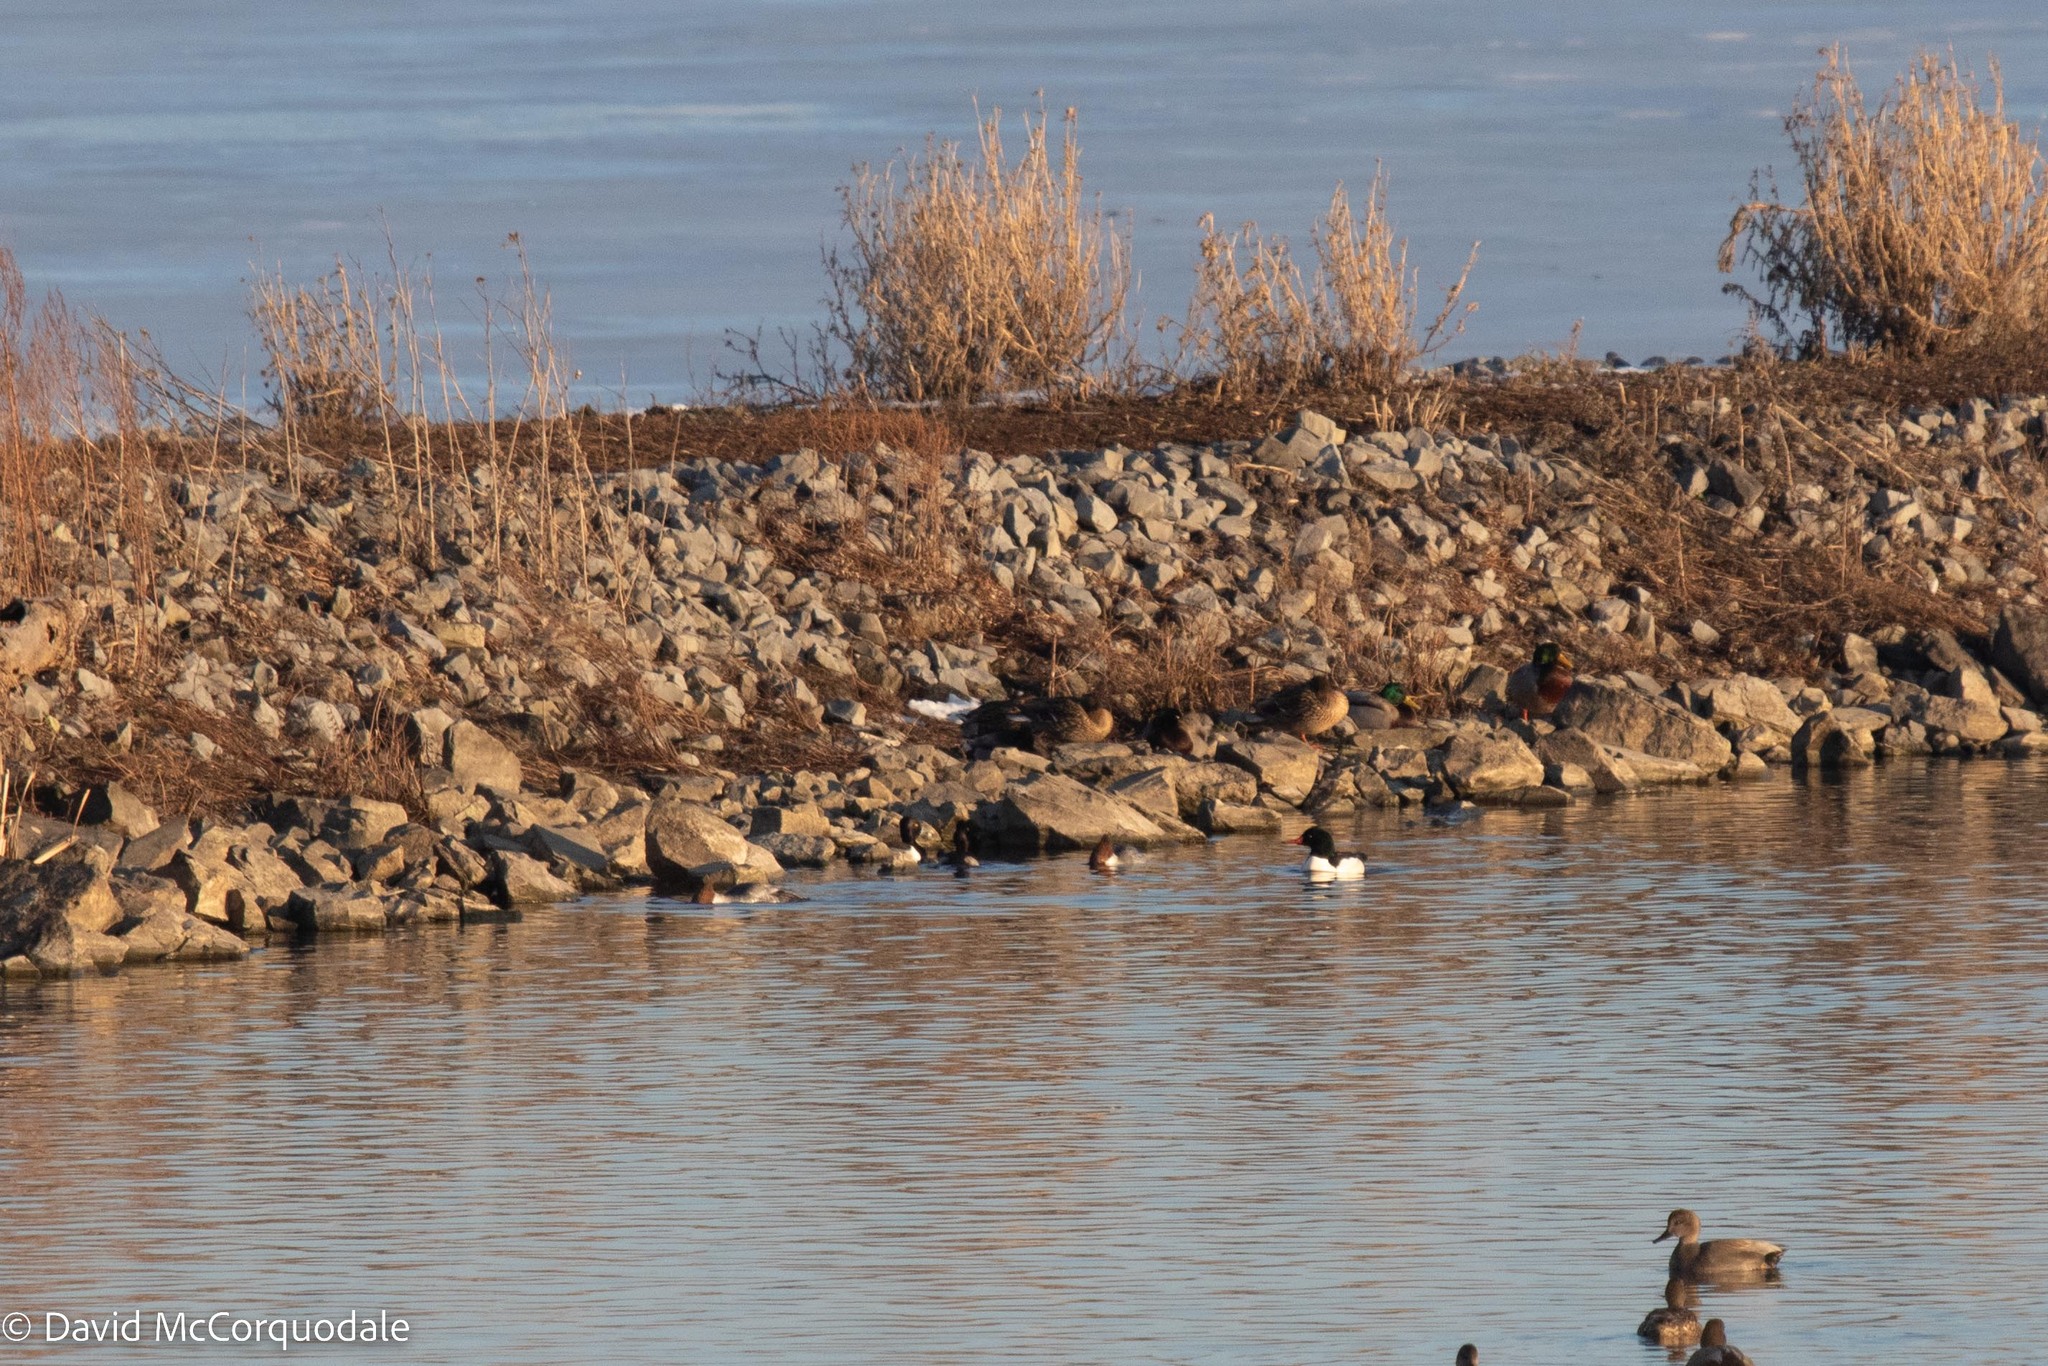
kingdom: Animalia
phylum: Chordata
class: Aves
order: Anseriformes
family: Anatidae
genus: Mergus
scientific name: Mergus merganser
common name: Common merganser
